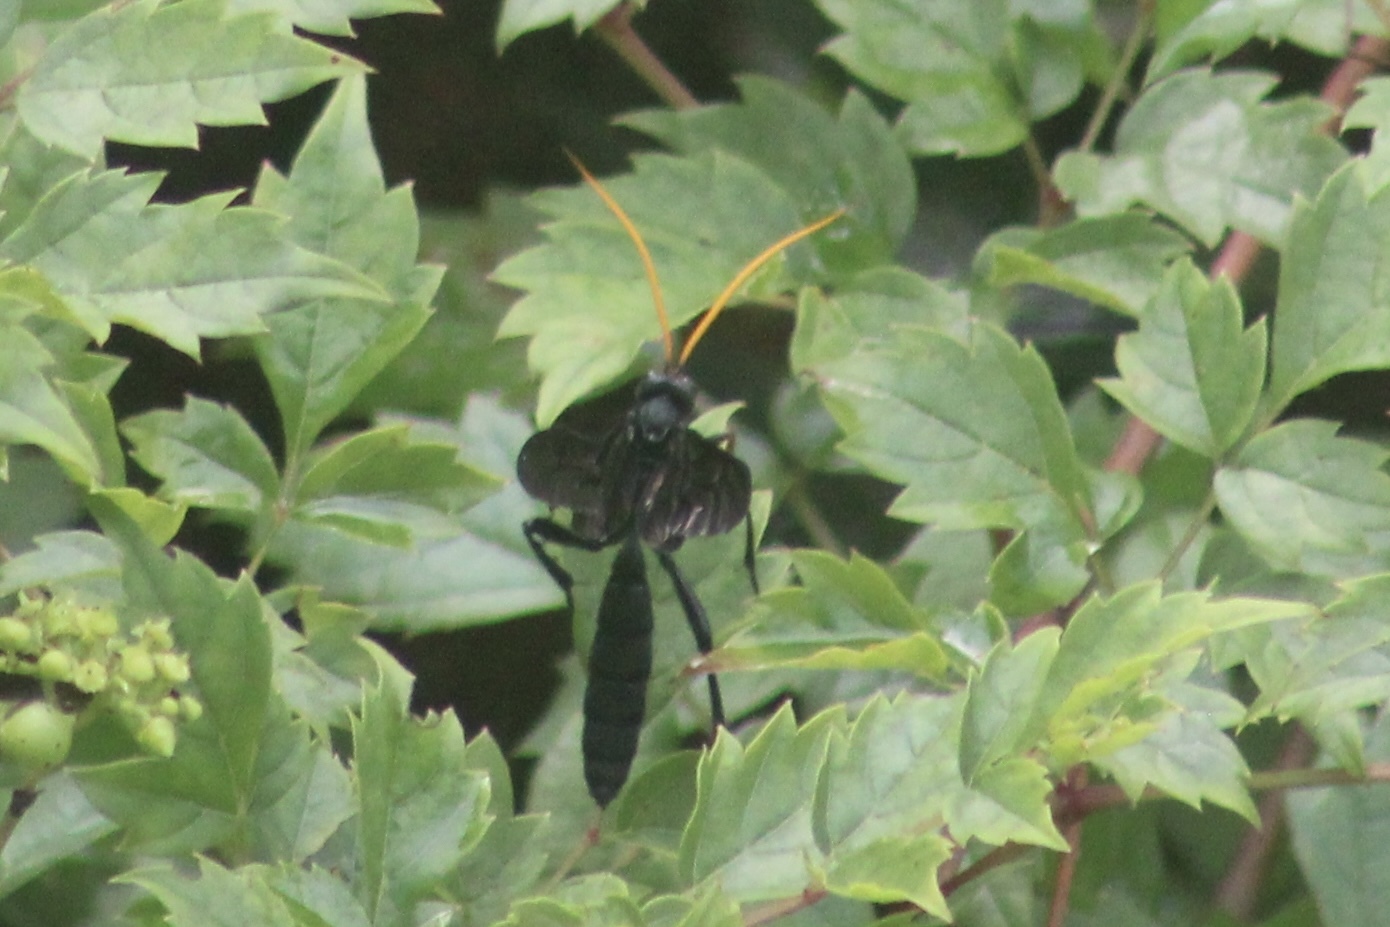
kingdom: Animalia
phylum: Arthropoda
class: Insecta
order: Hymenoptera
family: Ichneumonidae
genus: Gnamptopelta
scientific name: Gnamptopelta obsidianator
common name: Bent-shielded besieger wasp
